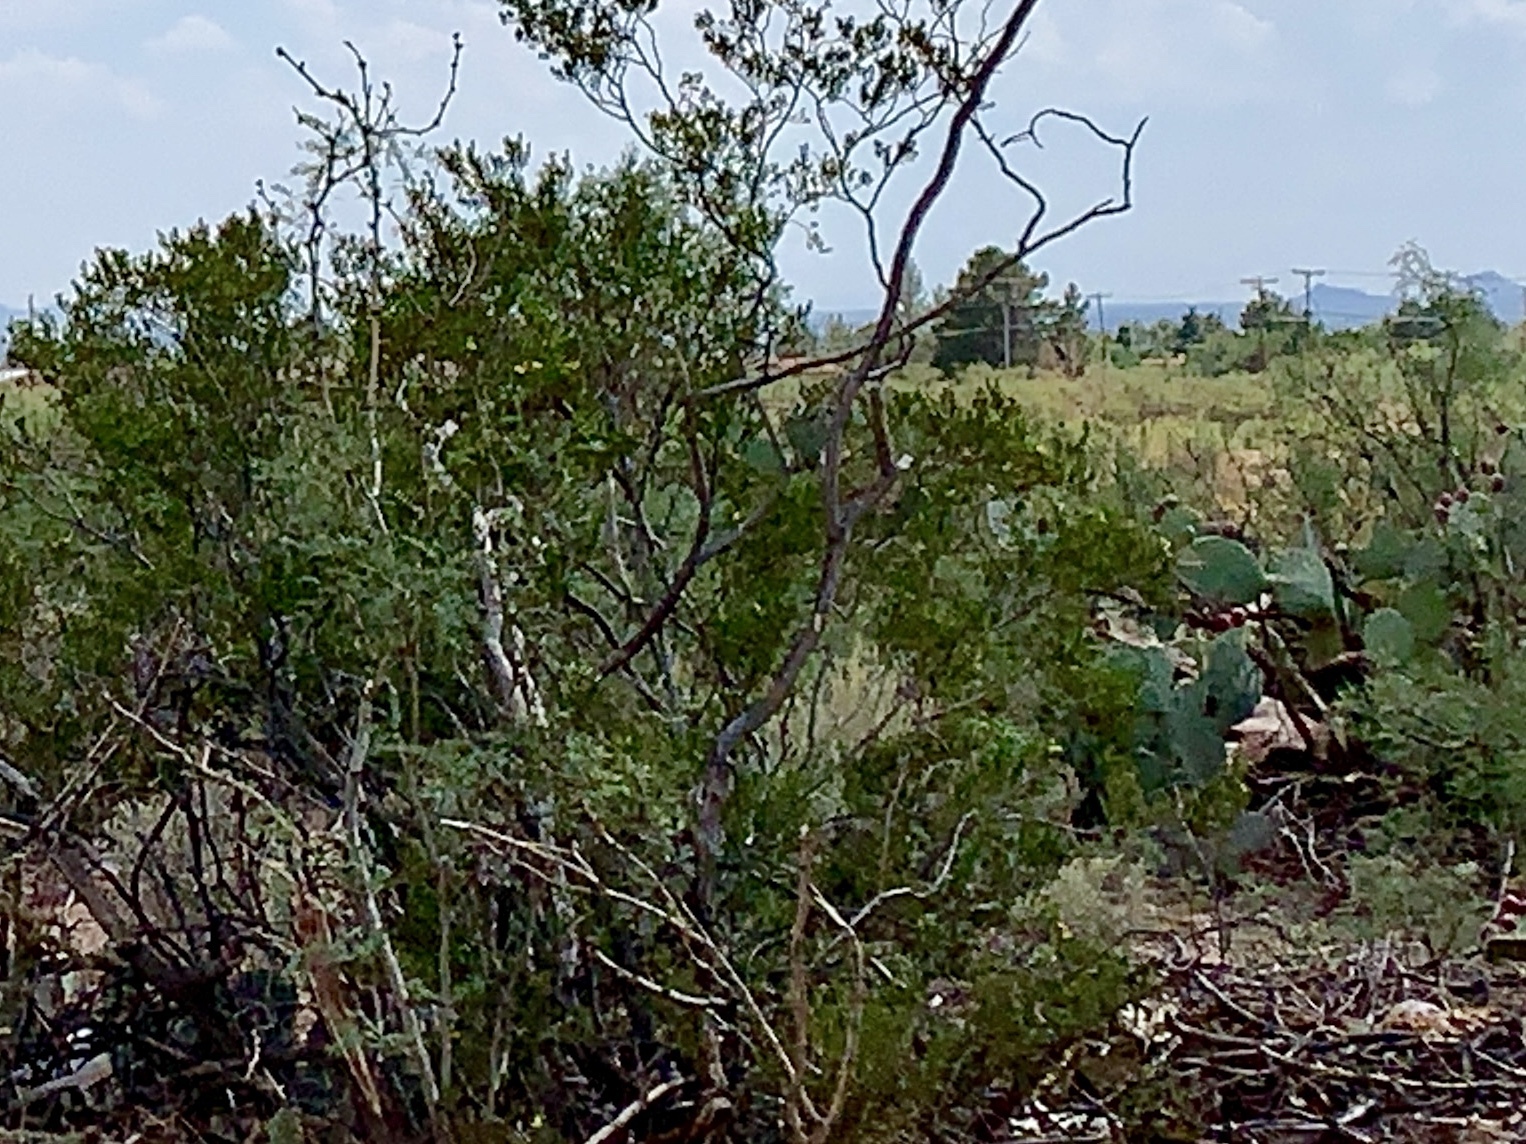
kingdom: Plantae
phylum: Tracheophyta
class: Magnoliopsida
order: Zygophyllales
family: Zygophyllaceae
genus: Larrea
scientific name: Larrea tridentata
